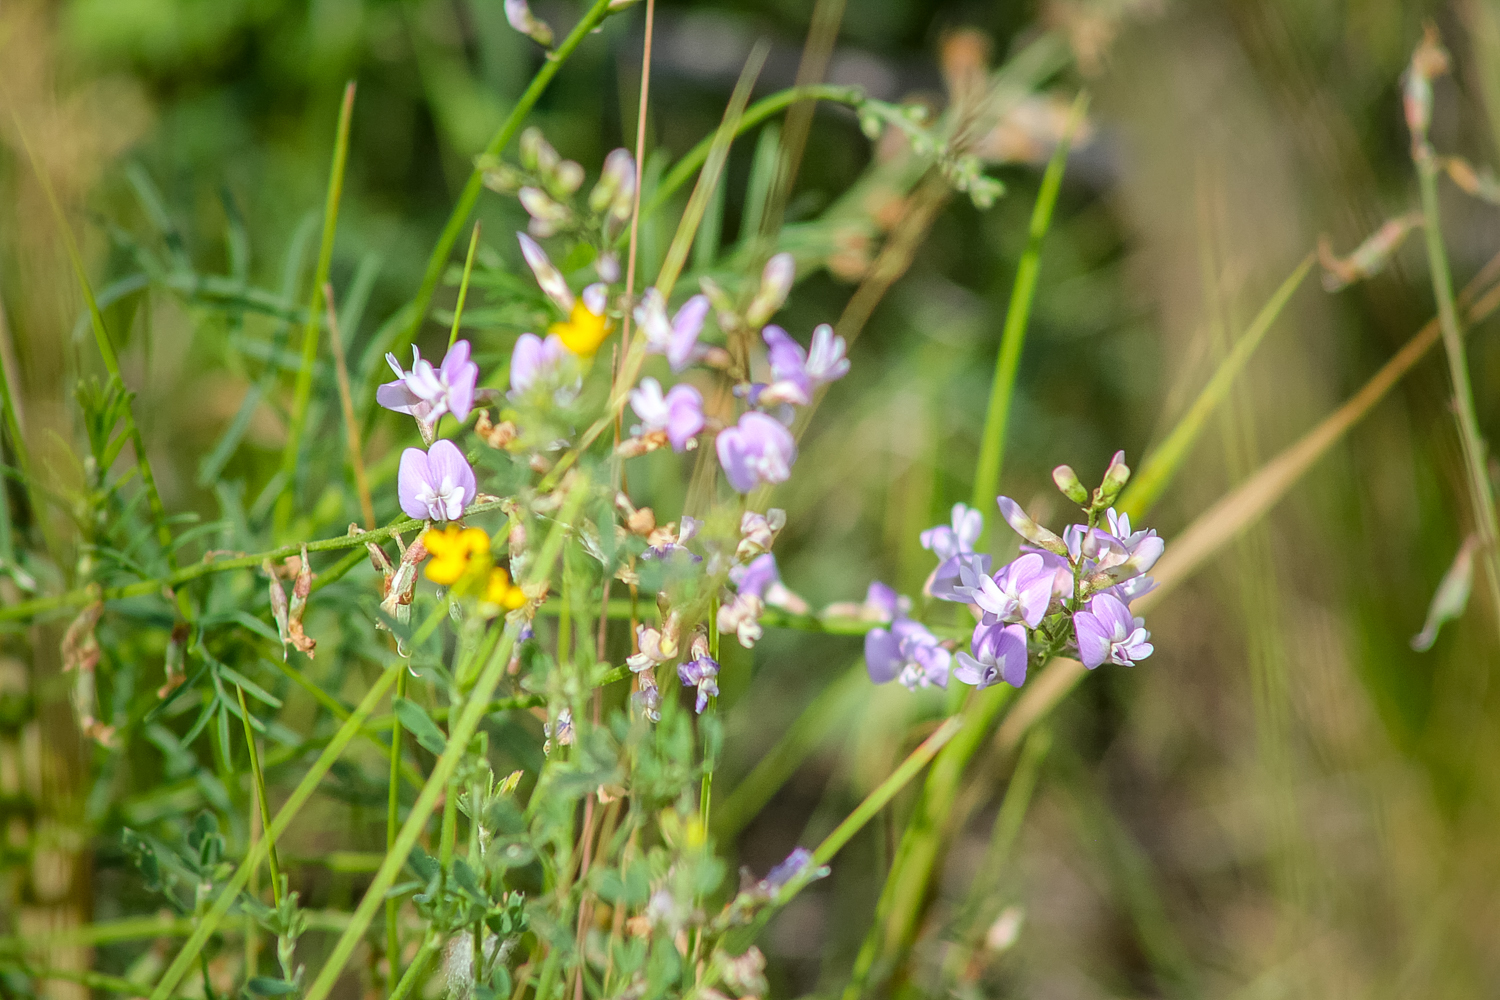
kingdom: Plantae
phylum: Tracheophyta
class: Magnoliopsida
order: Fabales
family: Fabaceae
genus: Astragalus
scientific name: Astragalus austriacus
